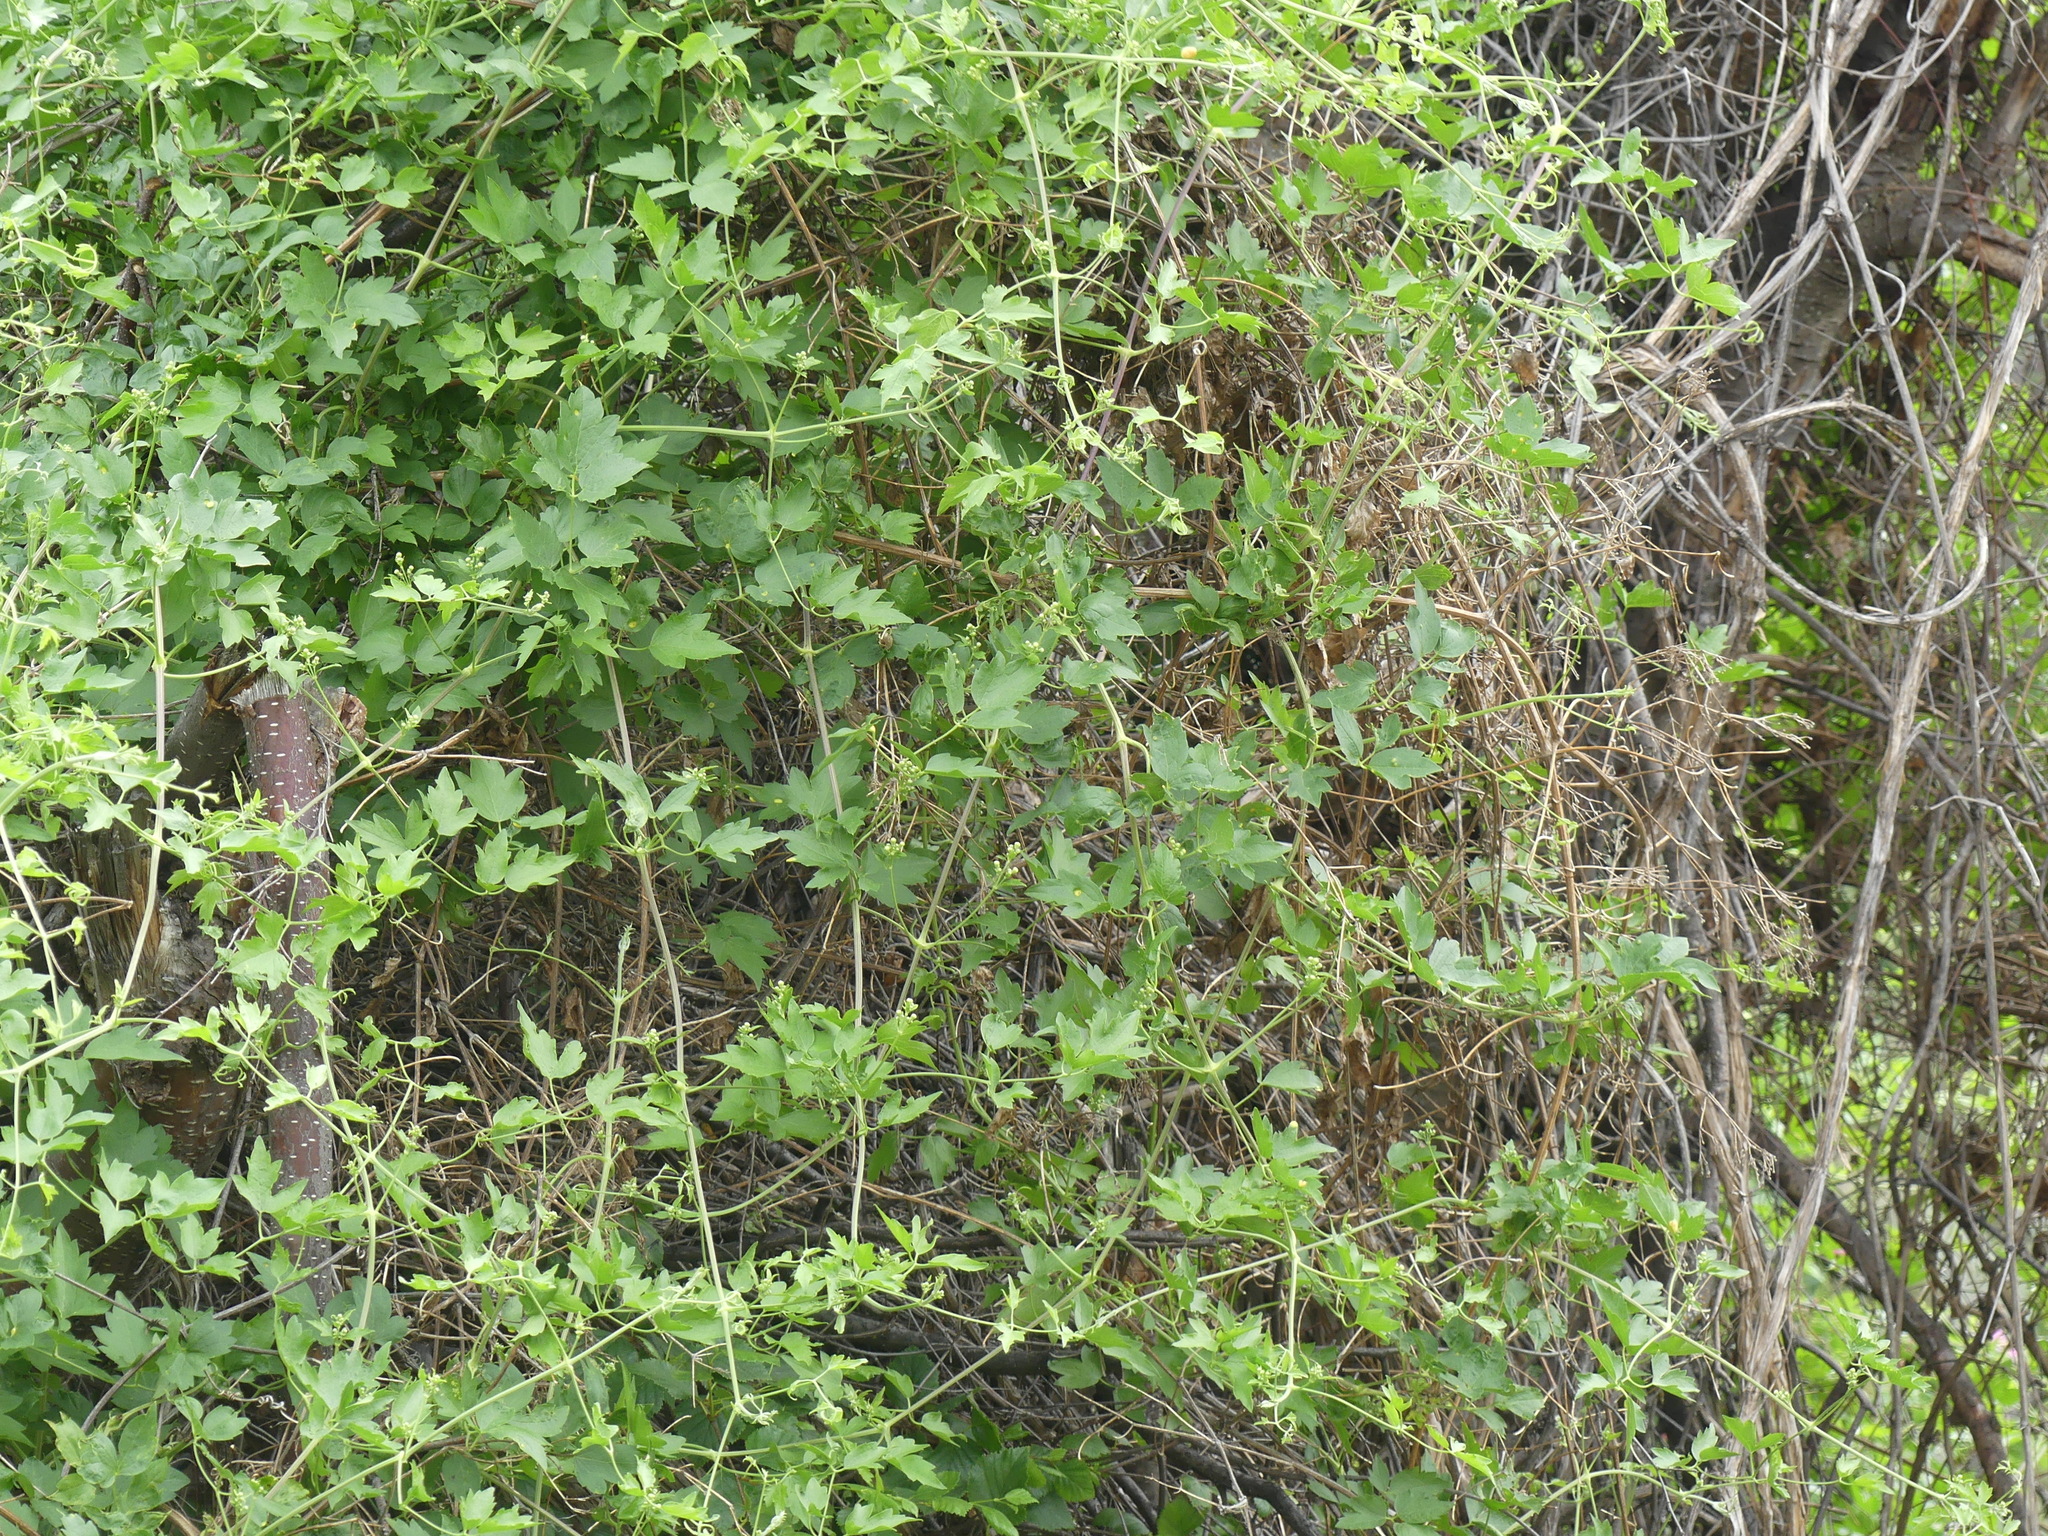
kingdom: Plantae
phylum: Tracheophyta
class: Magnoliopsida
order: Ranunculales
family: Ranunculaceae
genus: Clematis
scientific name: Clematis ligusticifolia
